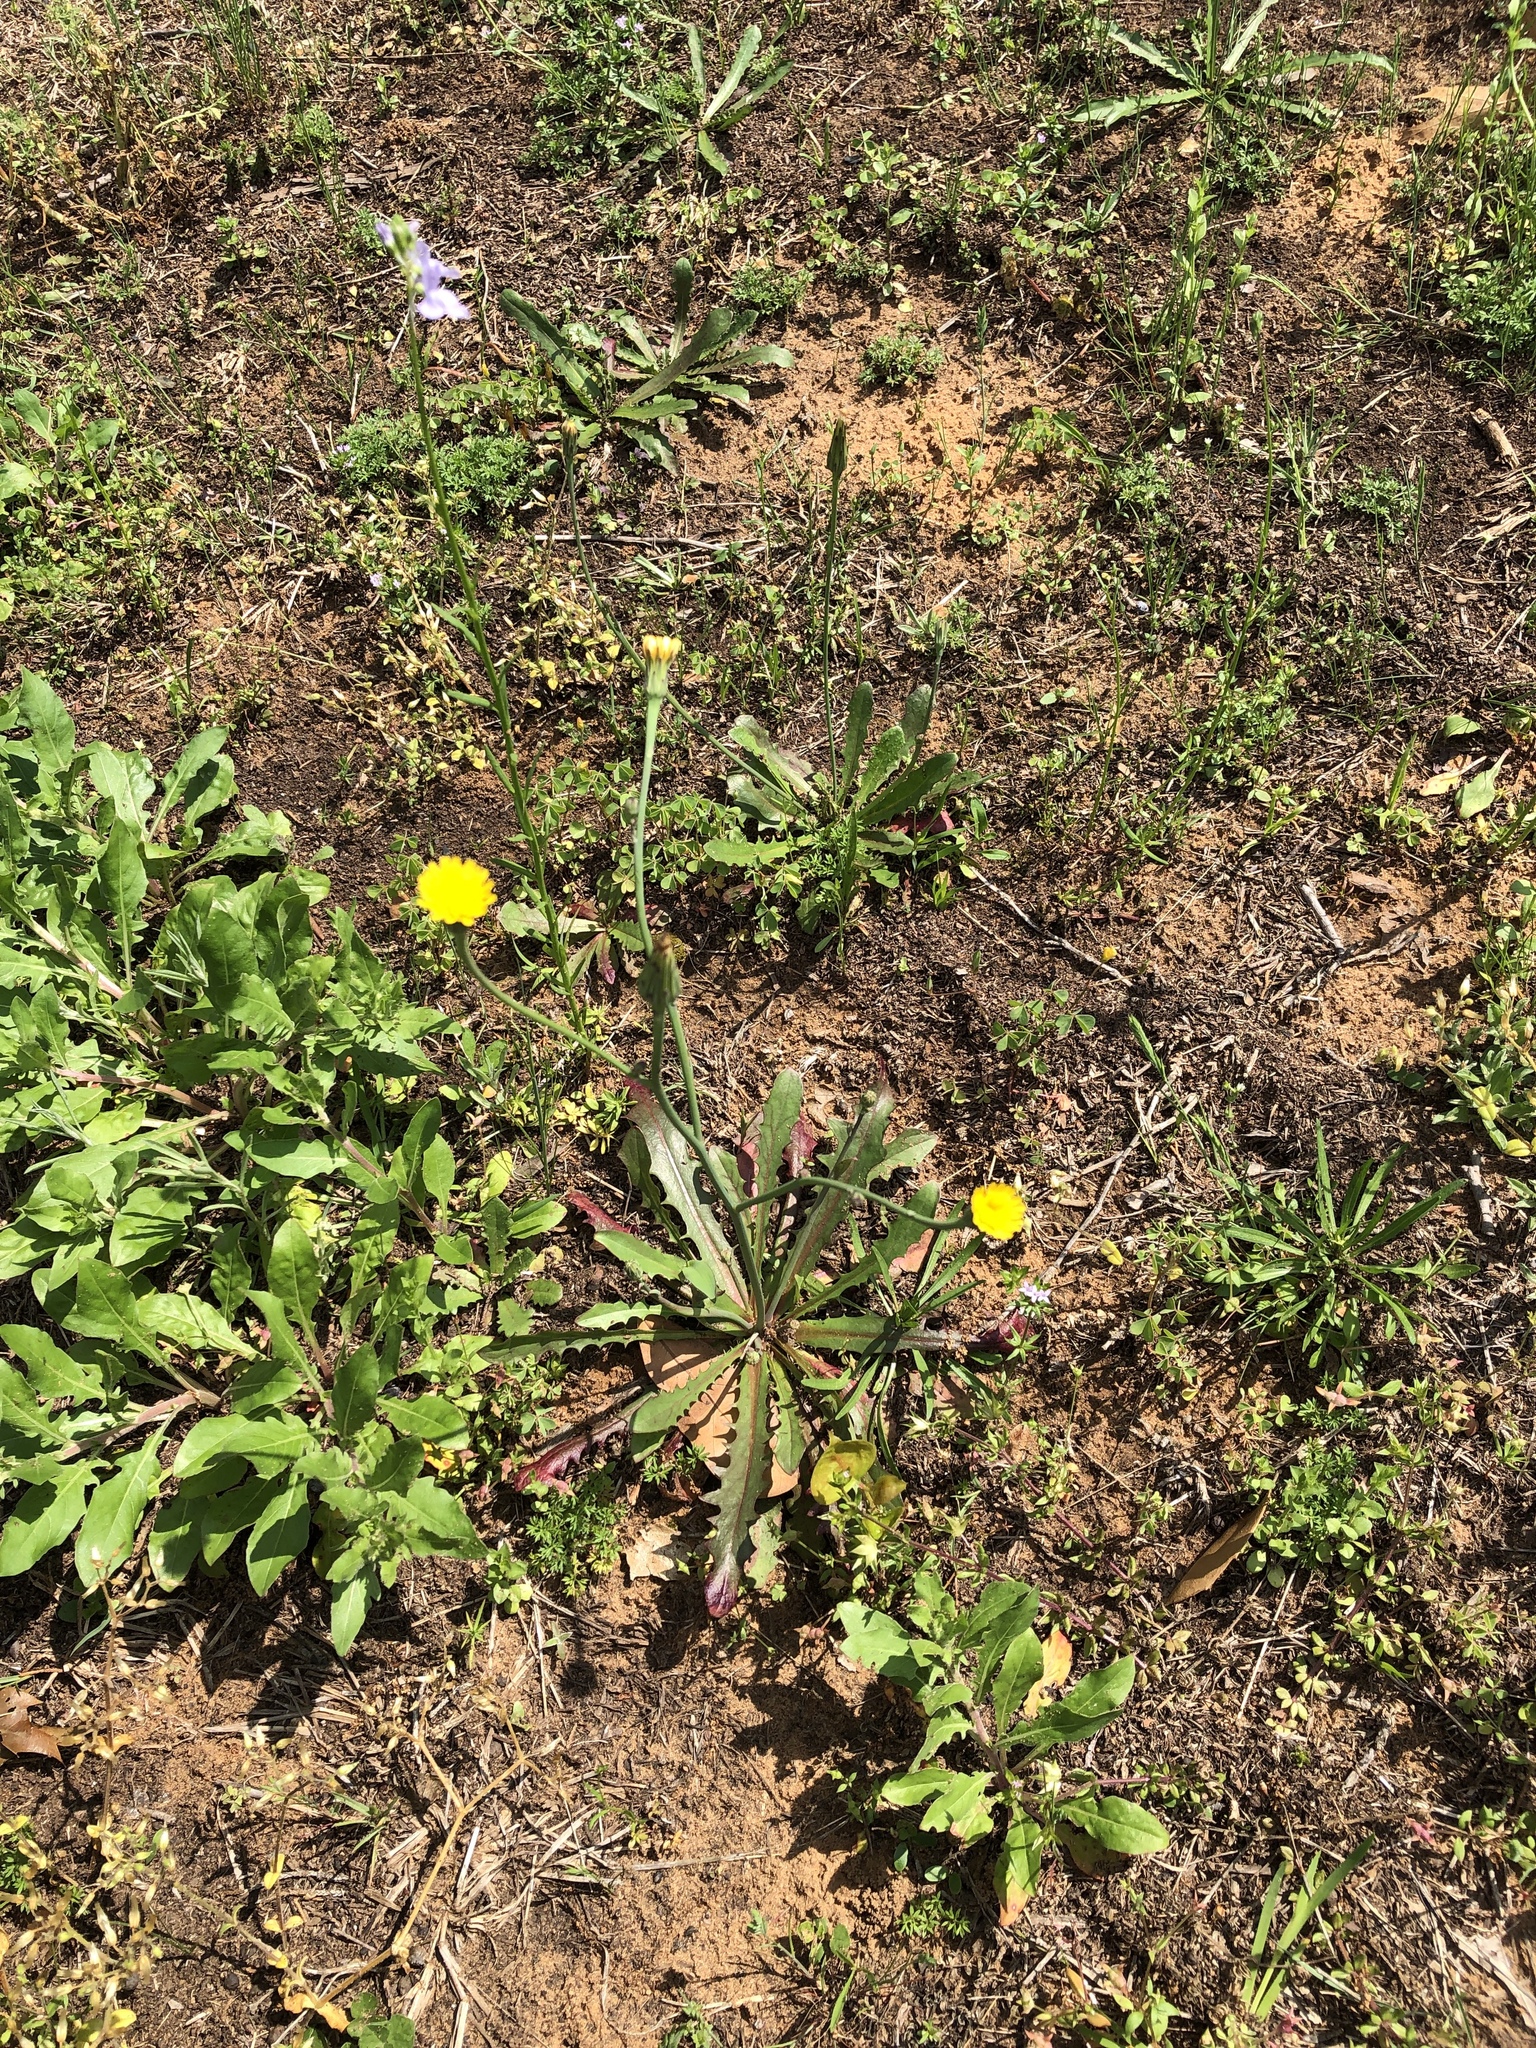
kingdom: Plantae
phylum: Tracheophyta
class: Magnoliopsida
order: Asterales
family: Asteraceae
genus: Hypochaeris
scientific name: Hypochaeris glabra
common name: Smooth catsear
